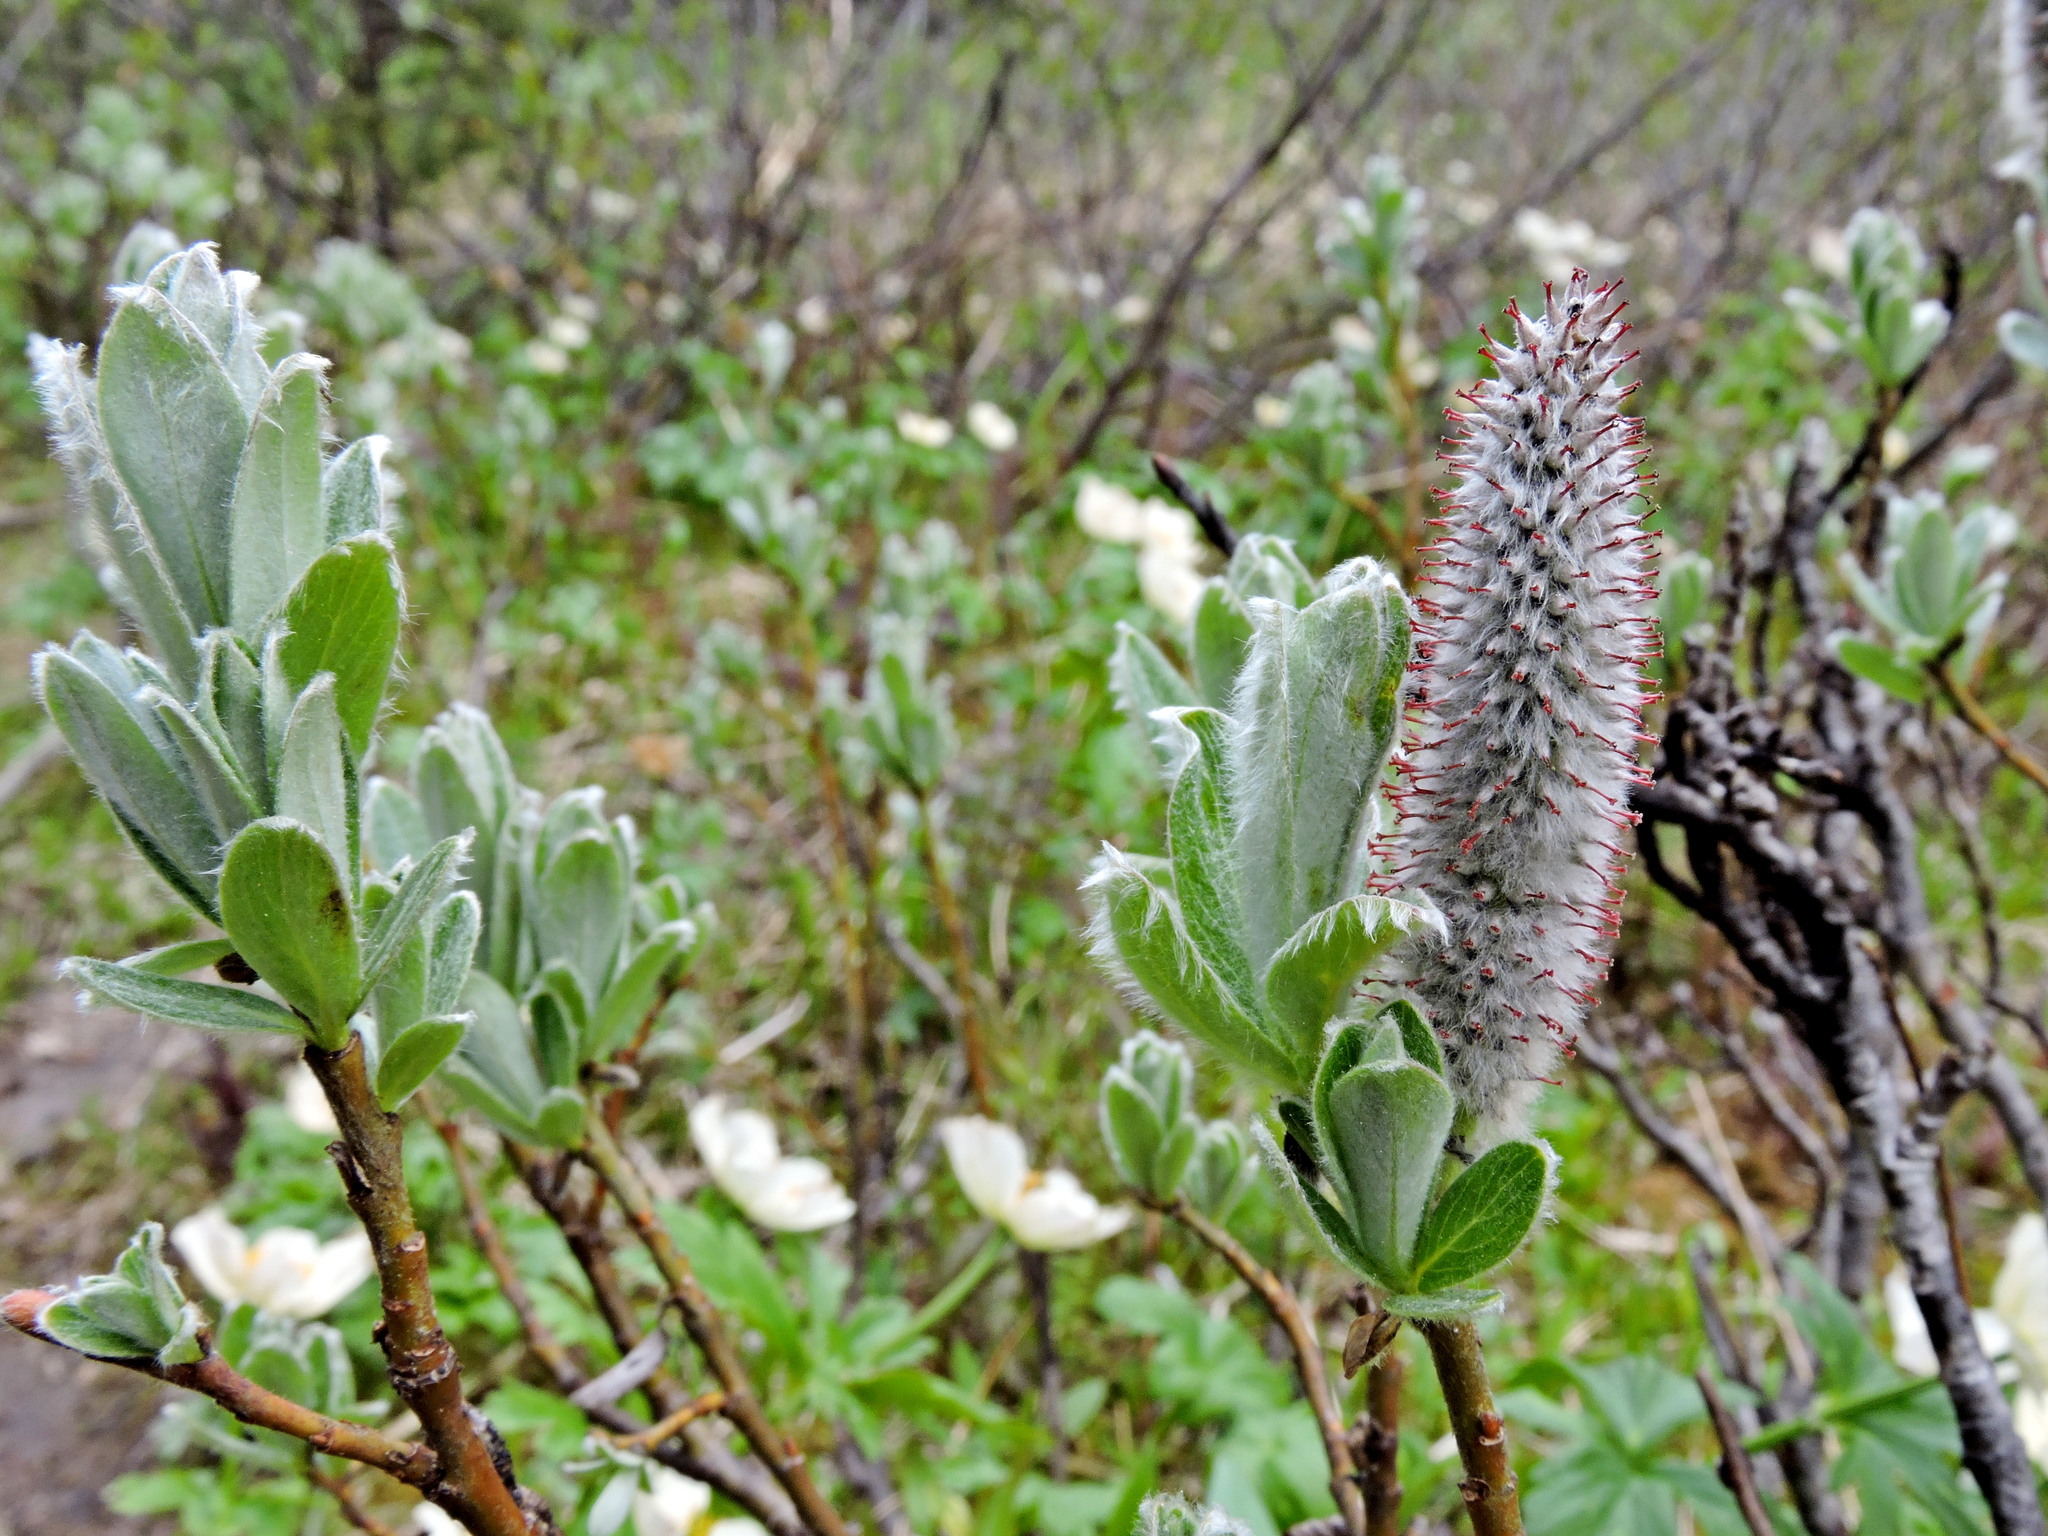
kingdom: Plantae
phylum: Tracheophyta
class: Magnoliopsida
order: Malpighiales
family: Salicaceae
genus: Salix
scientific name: Salix barrattiana
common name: Barratt's willow
